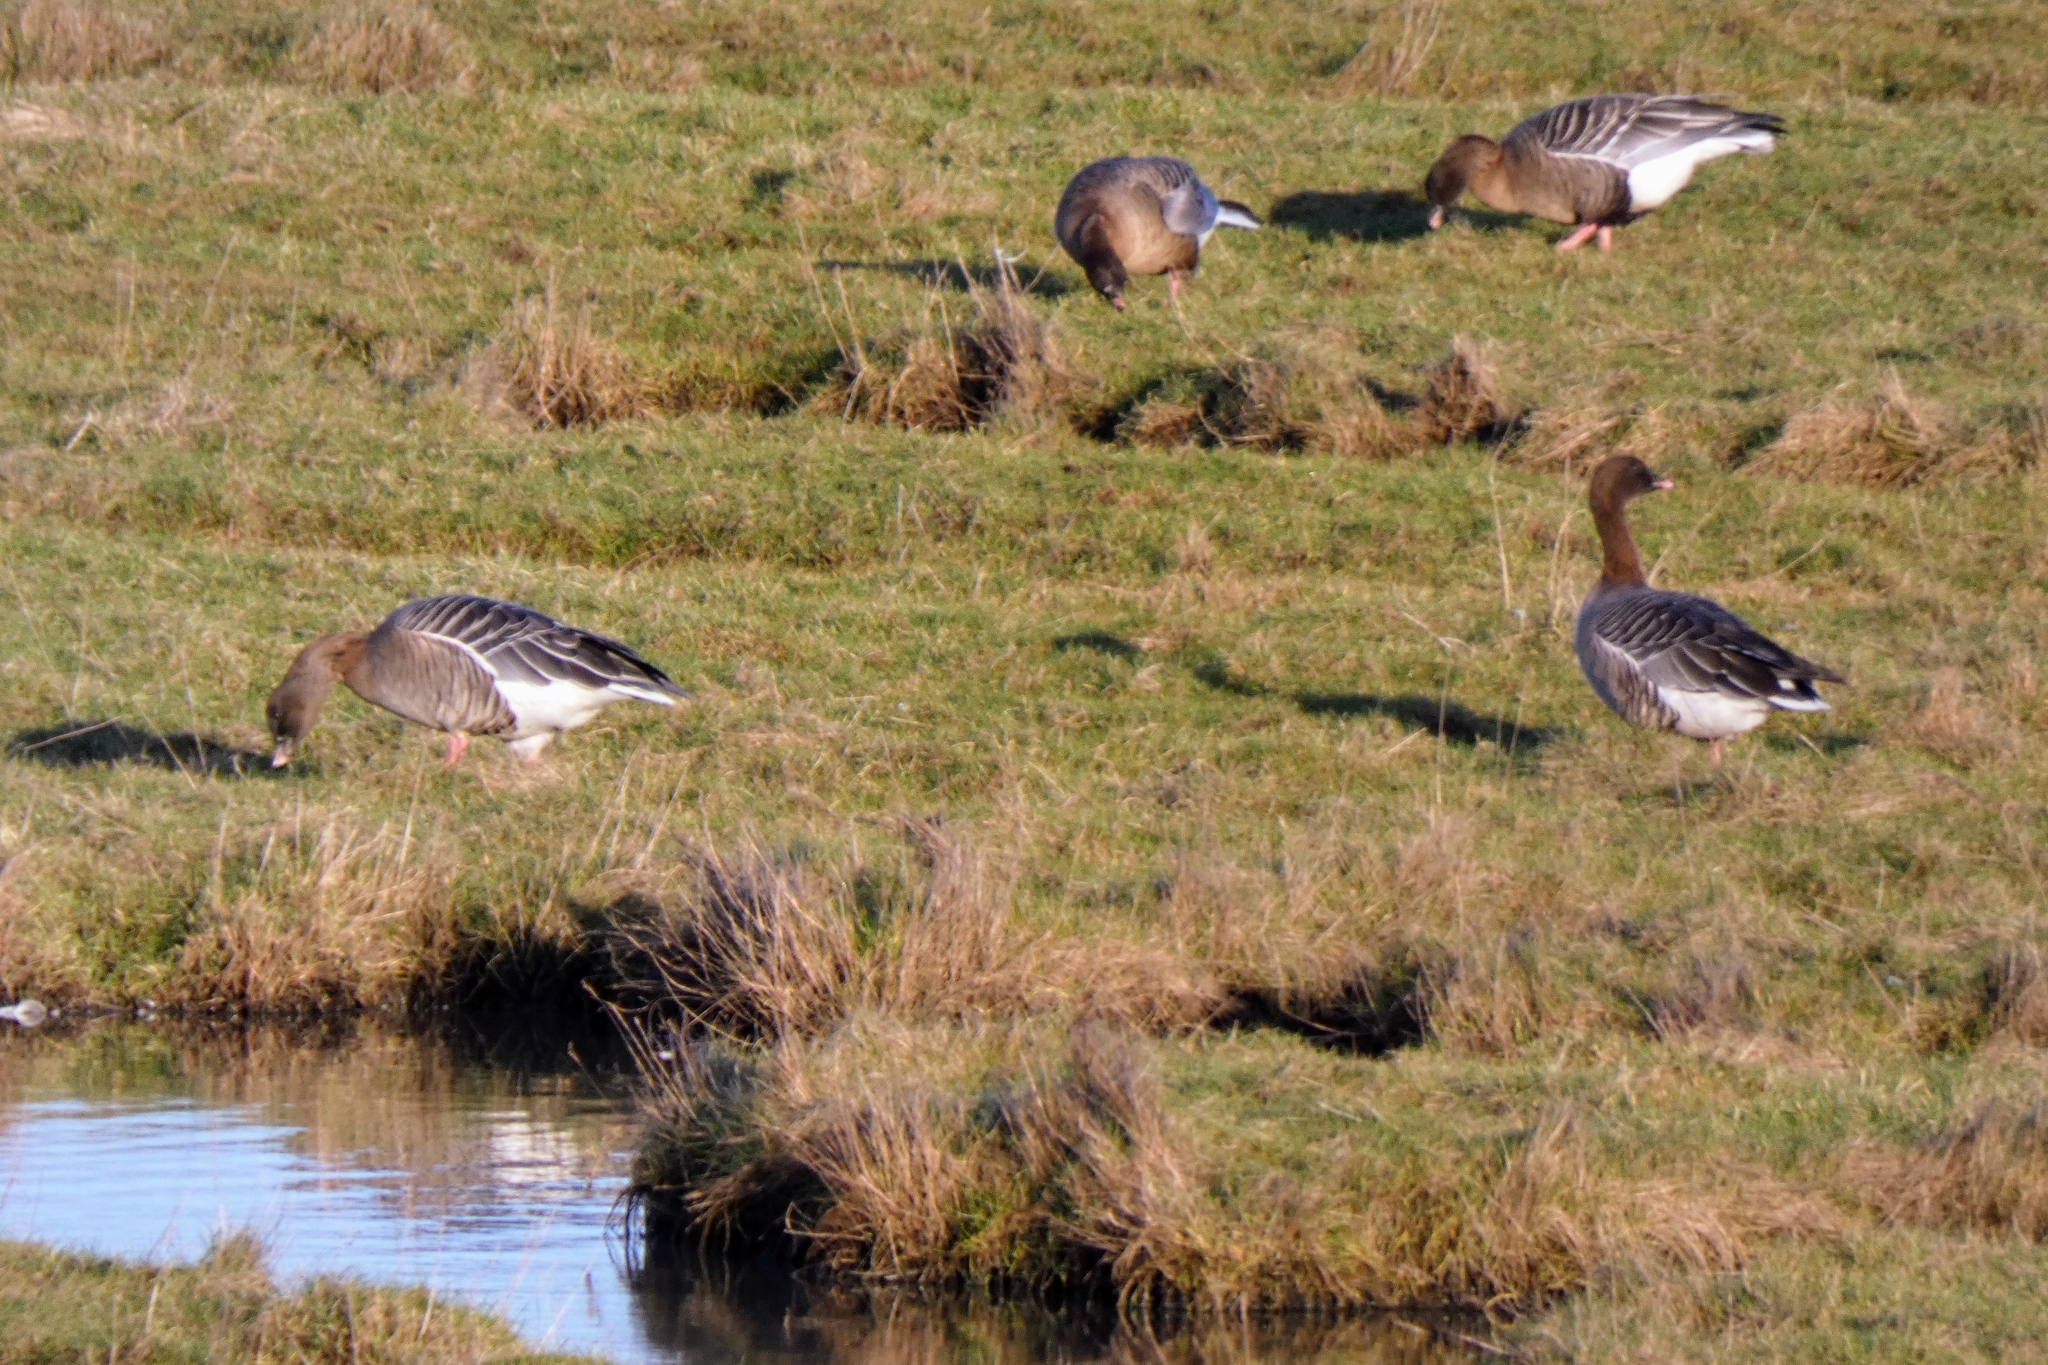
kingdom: Animalia
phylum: Chordata
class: Aves
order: Anseriformes
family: Anatidae
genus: Anser
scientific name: Anser brachyrhynchus
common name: Pink-footed goose
